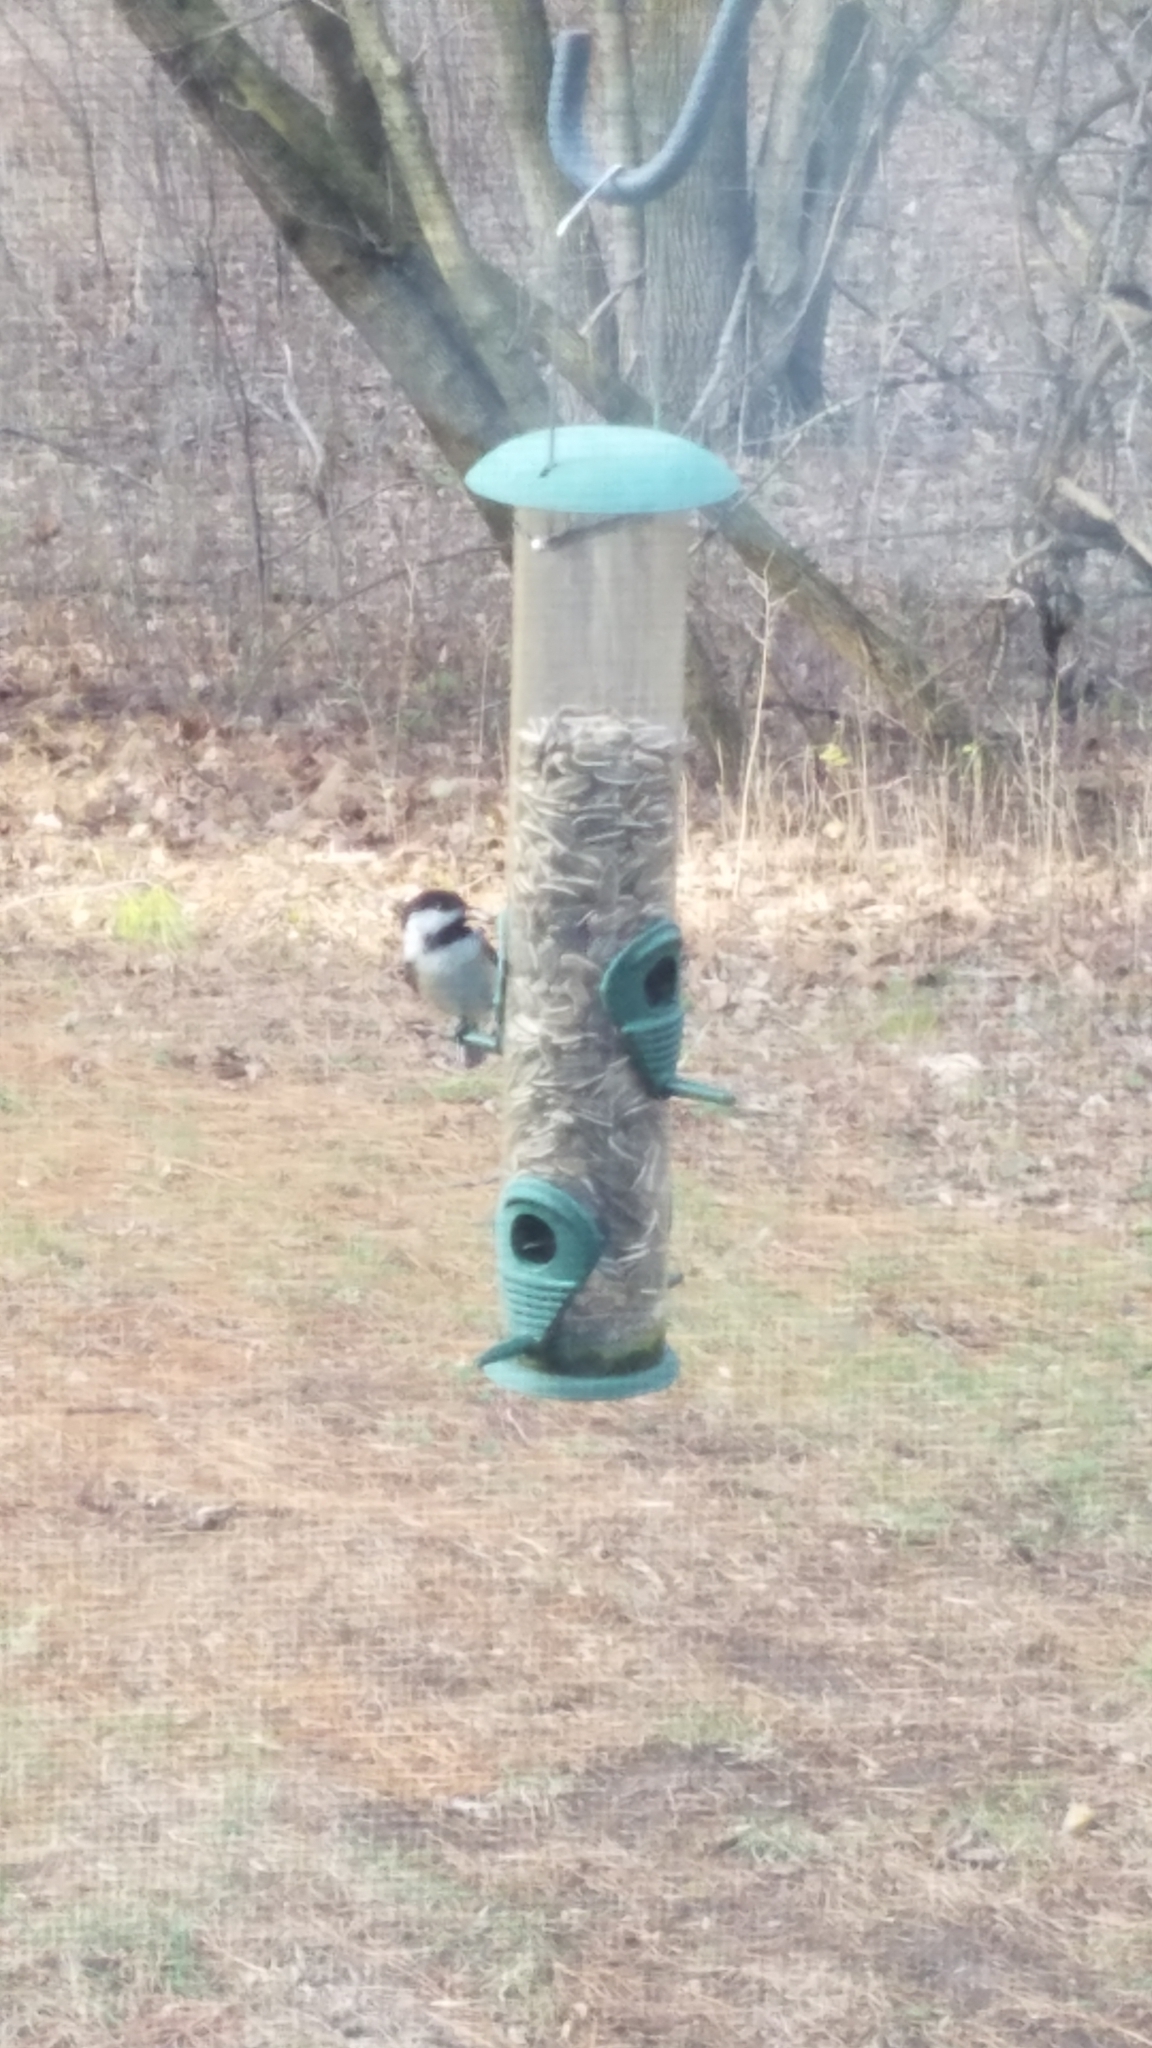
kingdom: Animalia
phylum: Chordata
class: Aves
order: Passeriformes
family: Paridae
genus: Poecile
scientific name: Poecile atricapillus
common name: Black-capped chickadee
